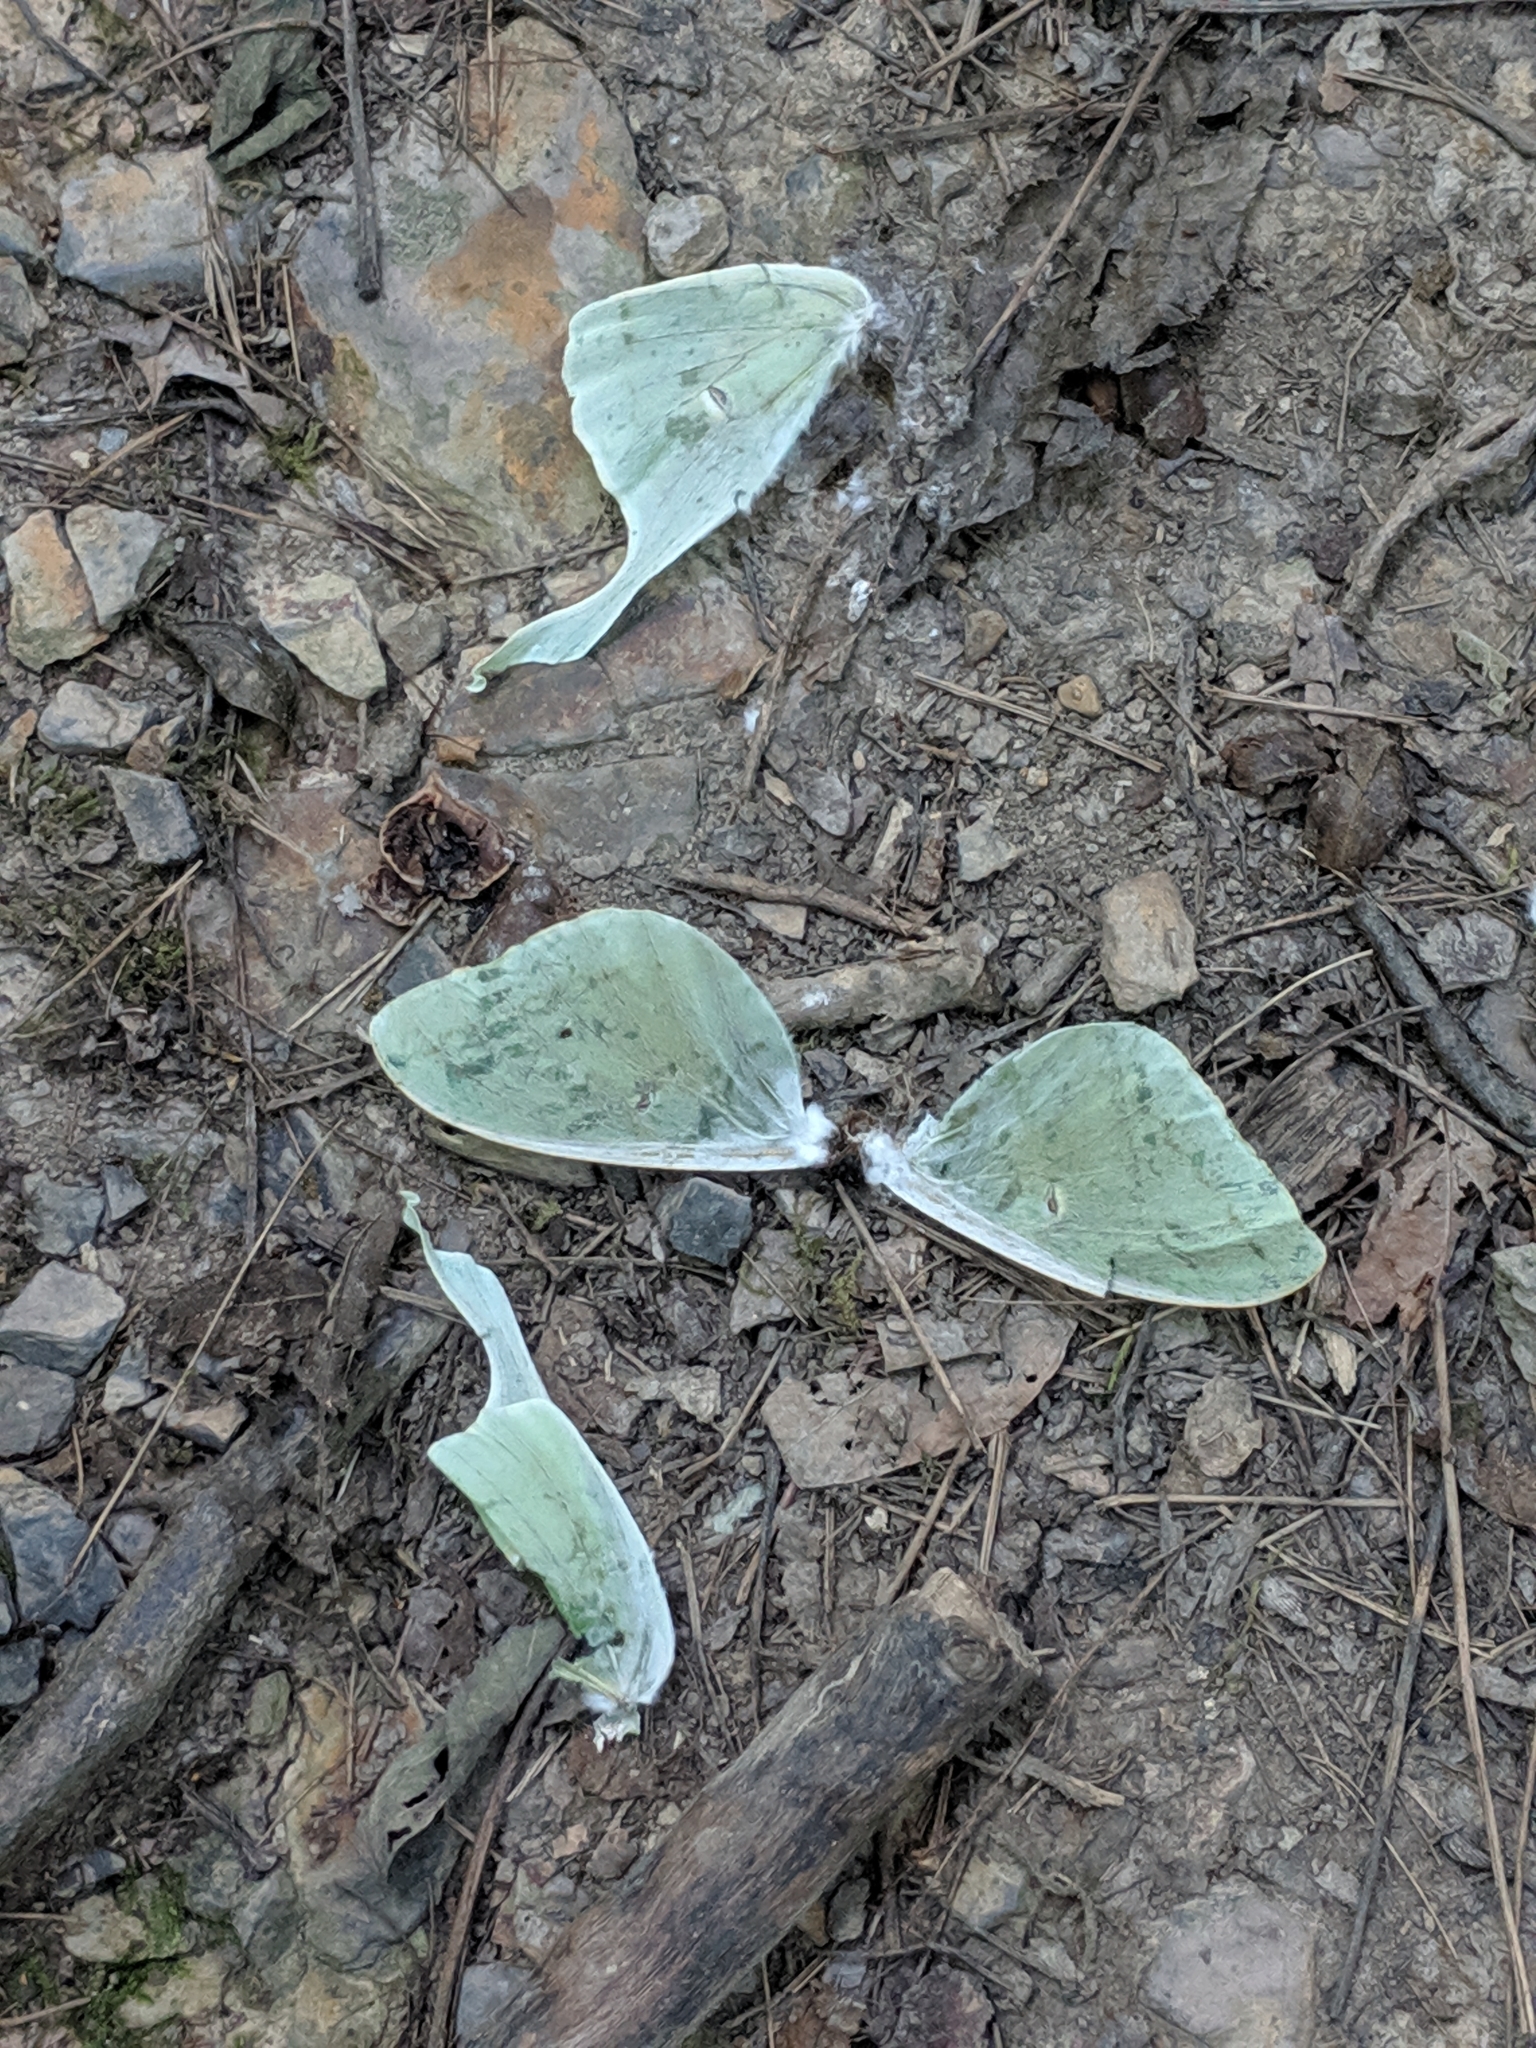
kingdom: Animalia
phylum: Arthropoda
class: Insecta
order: Lepidoptera
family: Saturniidae
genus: Actias
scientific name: Actias luna
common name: Luna moth
